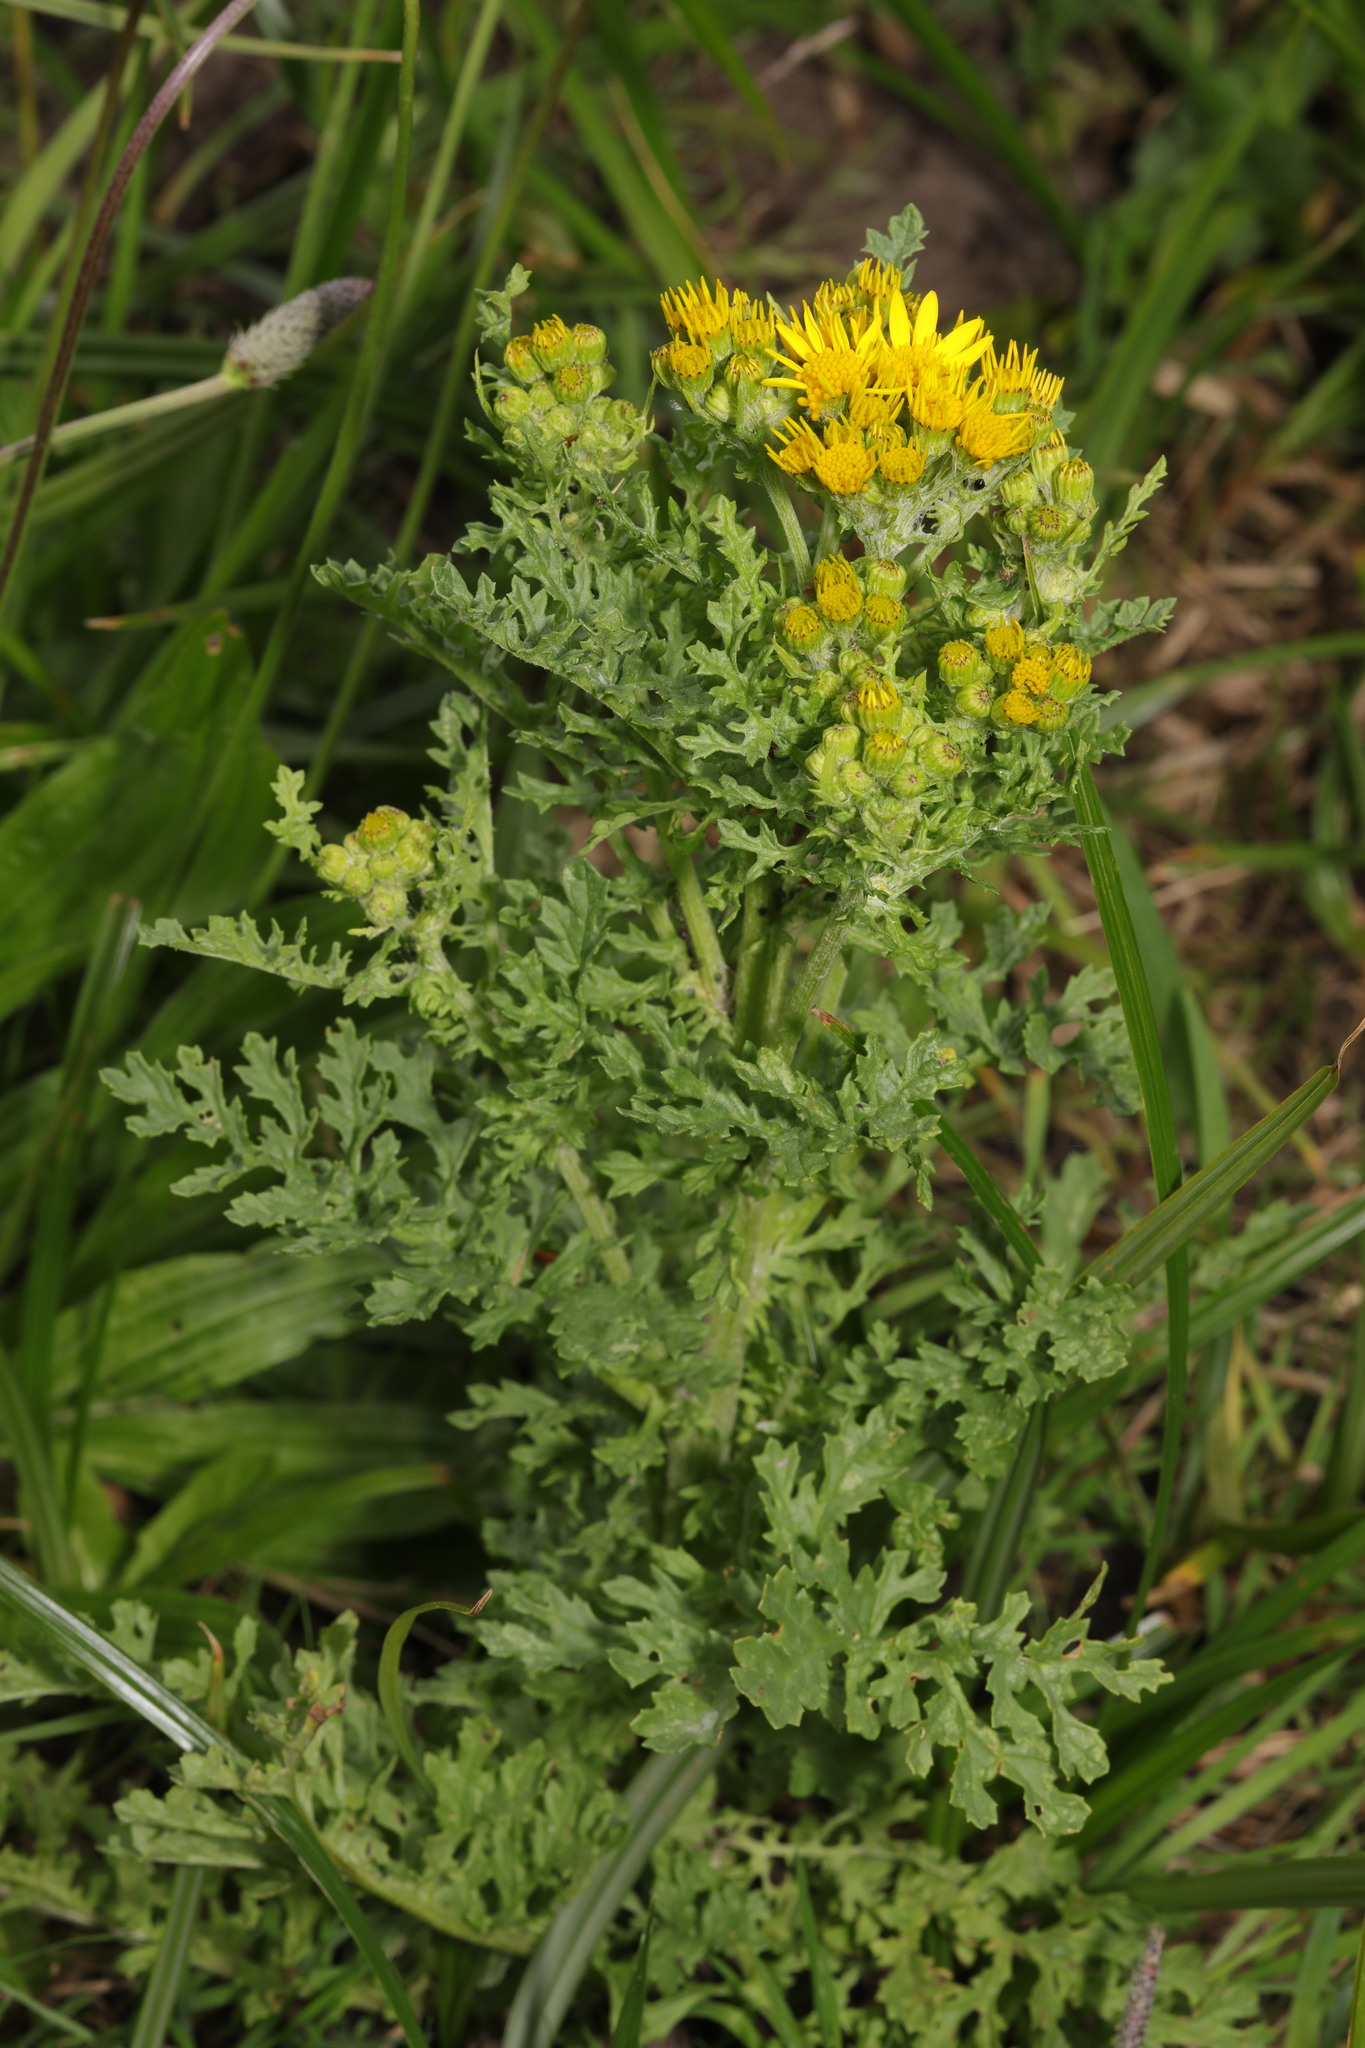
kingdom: Plantae
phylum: Tracheophyta
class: Magnoliopsida
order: Asterales
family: Asteraceae
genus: Jacobaea
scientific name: Jacobaea vulgaris
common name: Stinking willie
